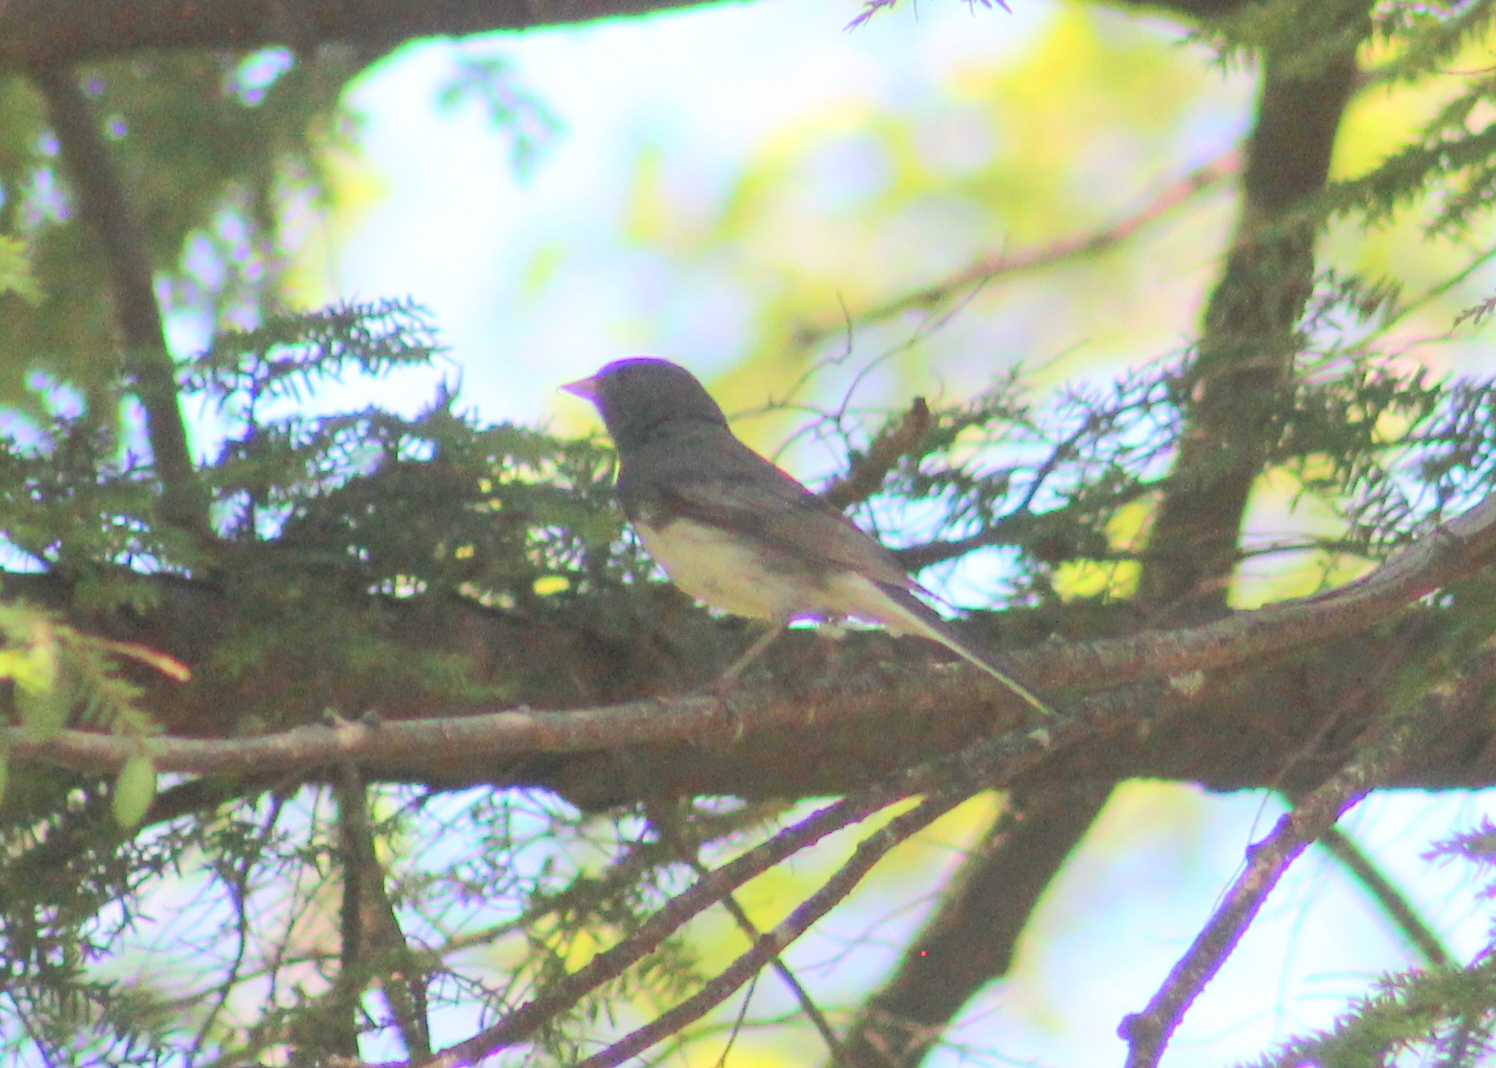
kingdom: Animalia
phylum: Chordata
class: Aves
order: Passeriformes
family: Passerellidae
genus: Junco
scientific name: Junco hyemalis
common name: Dark-eyed junco
